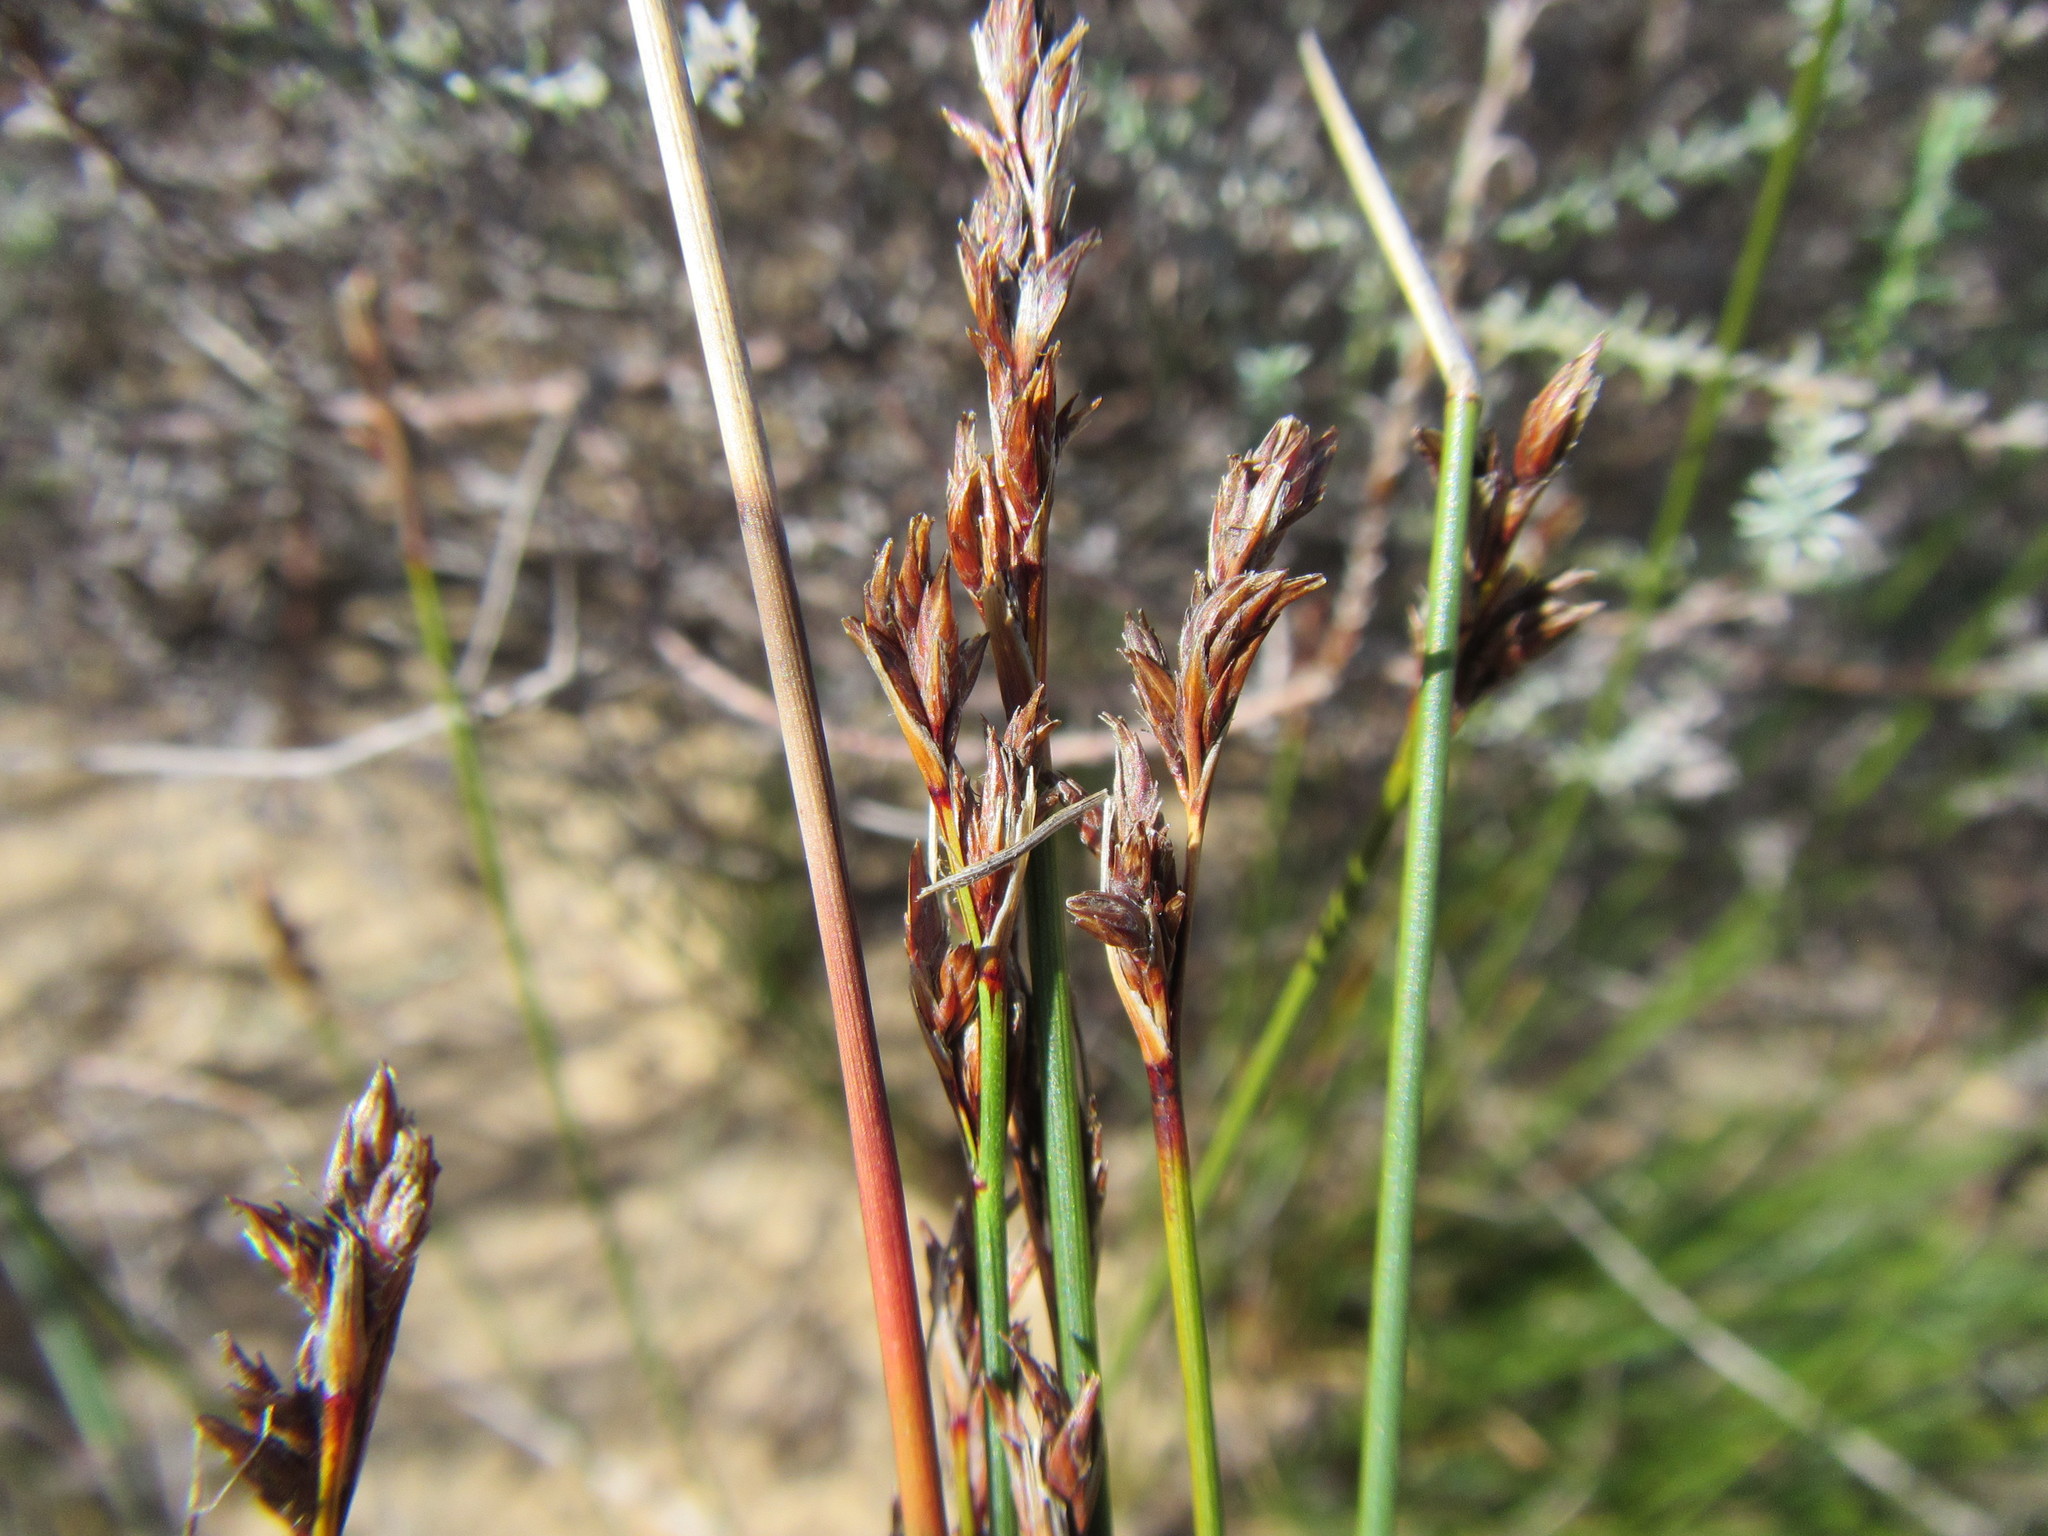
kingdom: Plantae
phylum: Tracheophyta
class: Liliopsida
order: Poales
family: Cyperaceae
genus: Schoenus
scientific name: Schoenus pseudoloreus
